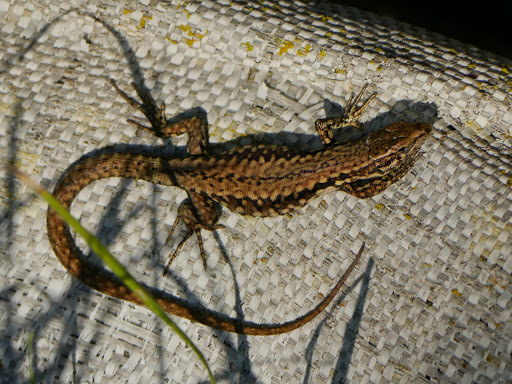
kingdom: Animalia
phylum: Chordata
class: Squamata
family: Lacertidae
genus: Podarcis
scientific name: Podarcis muralis
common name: Common wall lizard
